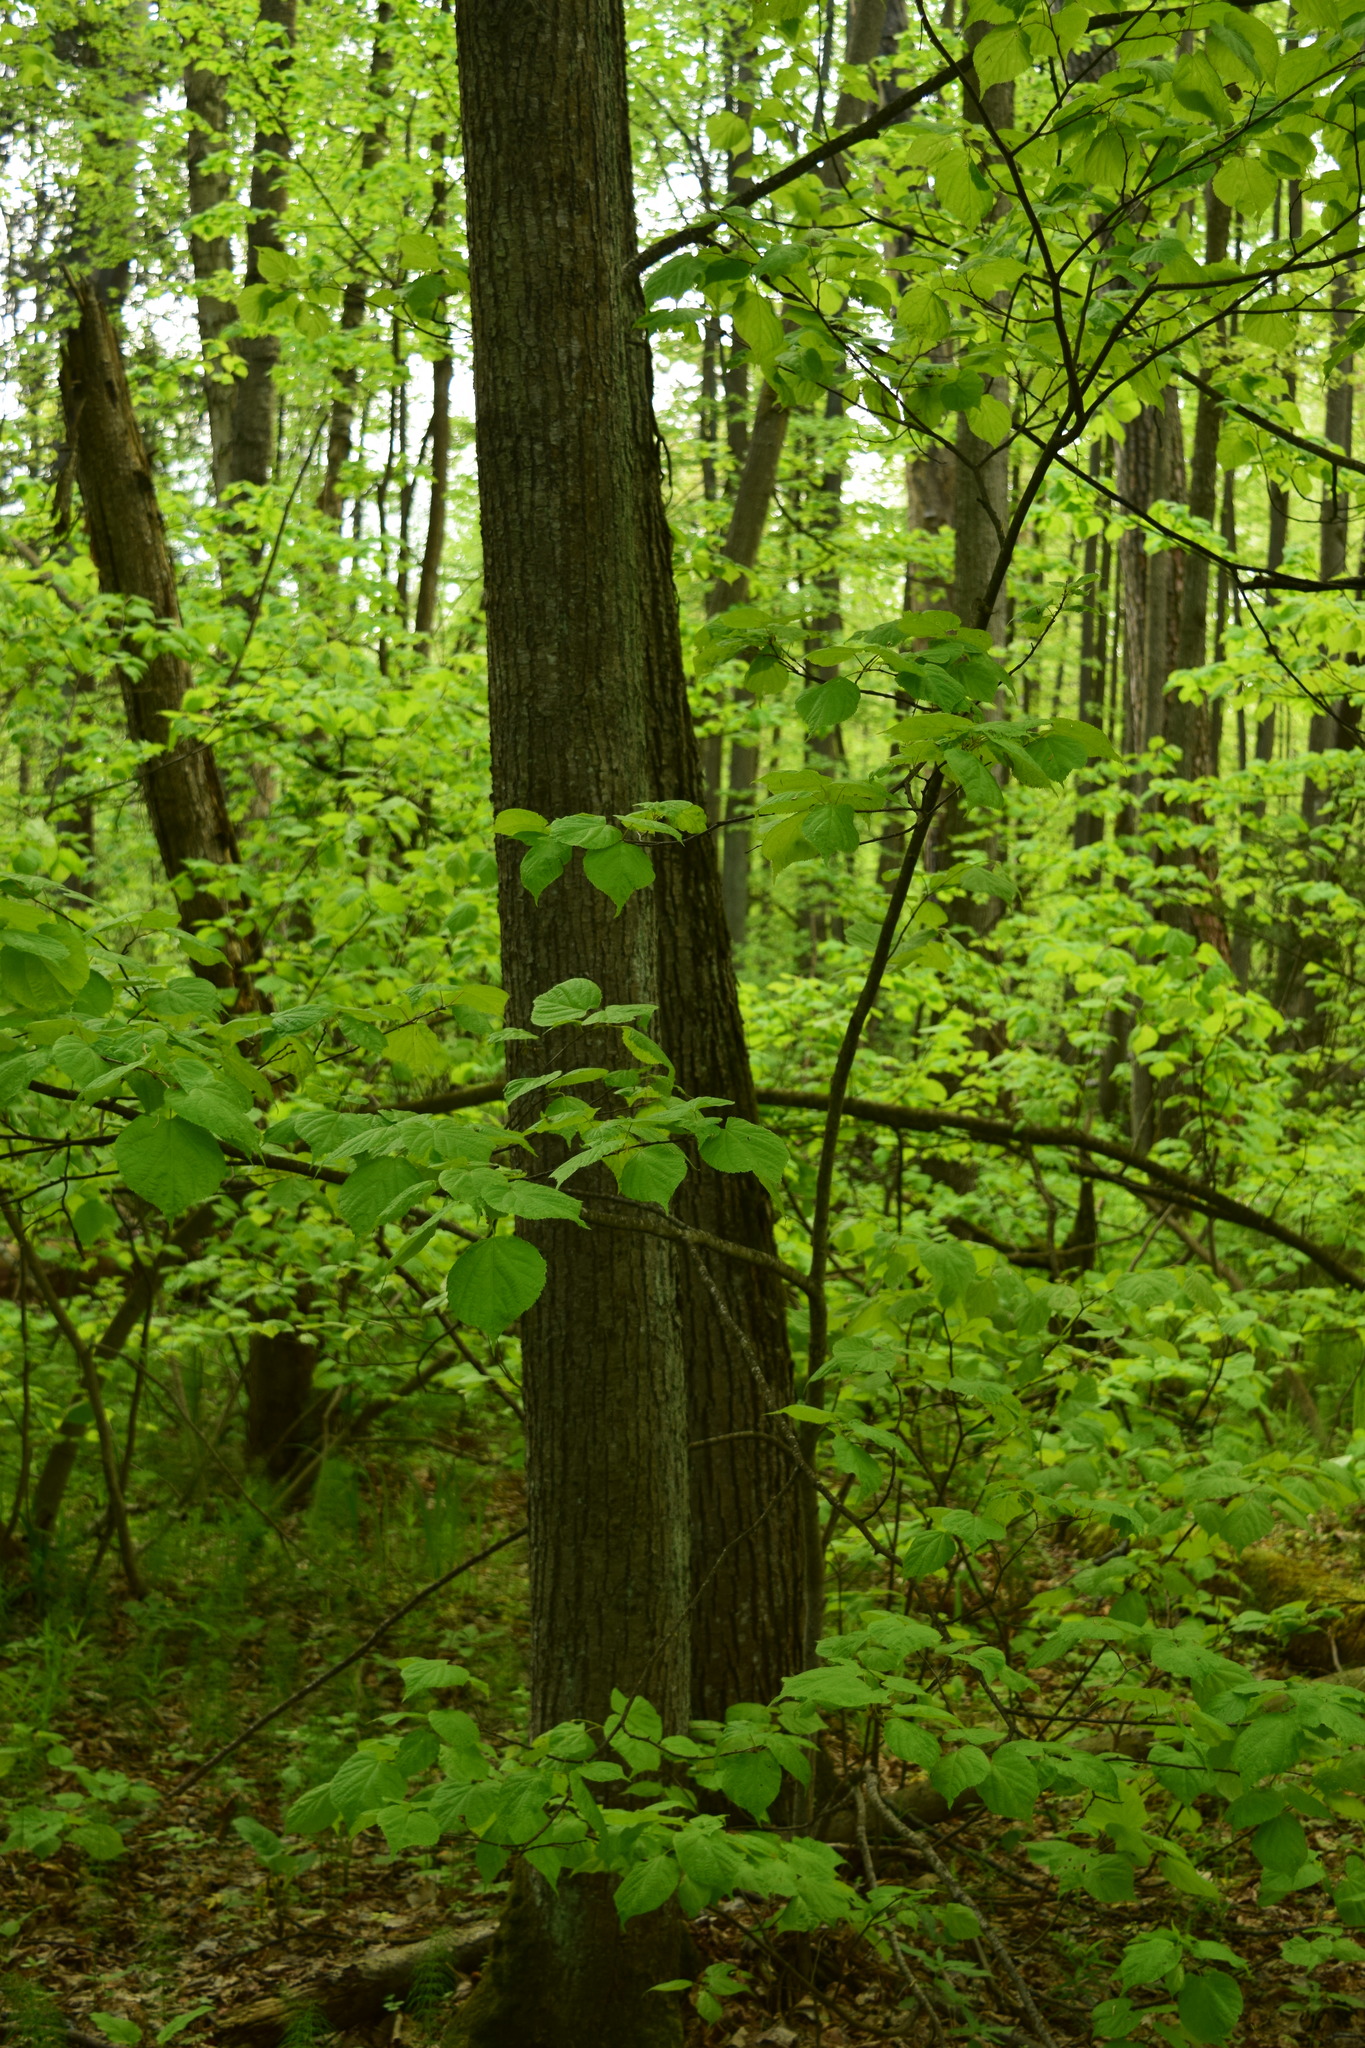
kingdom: Plantae
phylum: Tracheophyta
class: Magnoliopsida
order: Malvales
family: Malvaceae
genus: Tilia
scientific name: Tilia cordata
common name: Small-leaved lime
